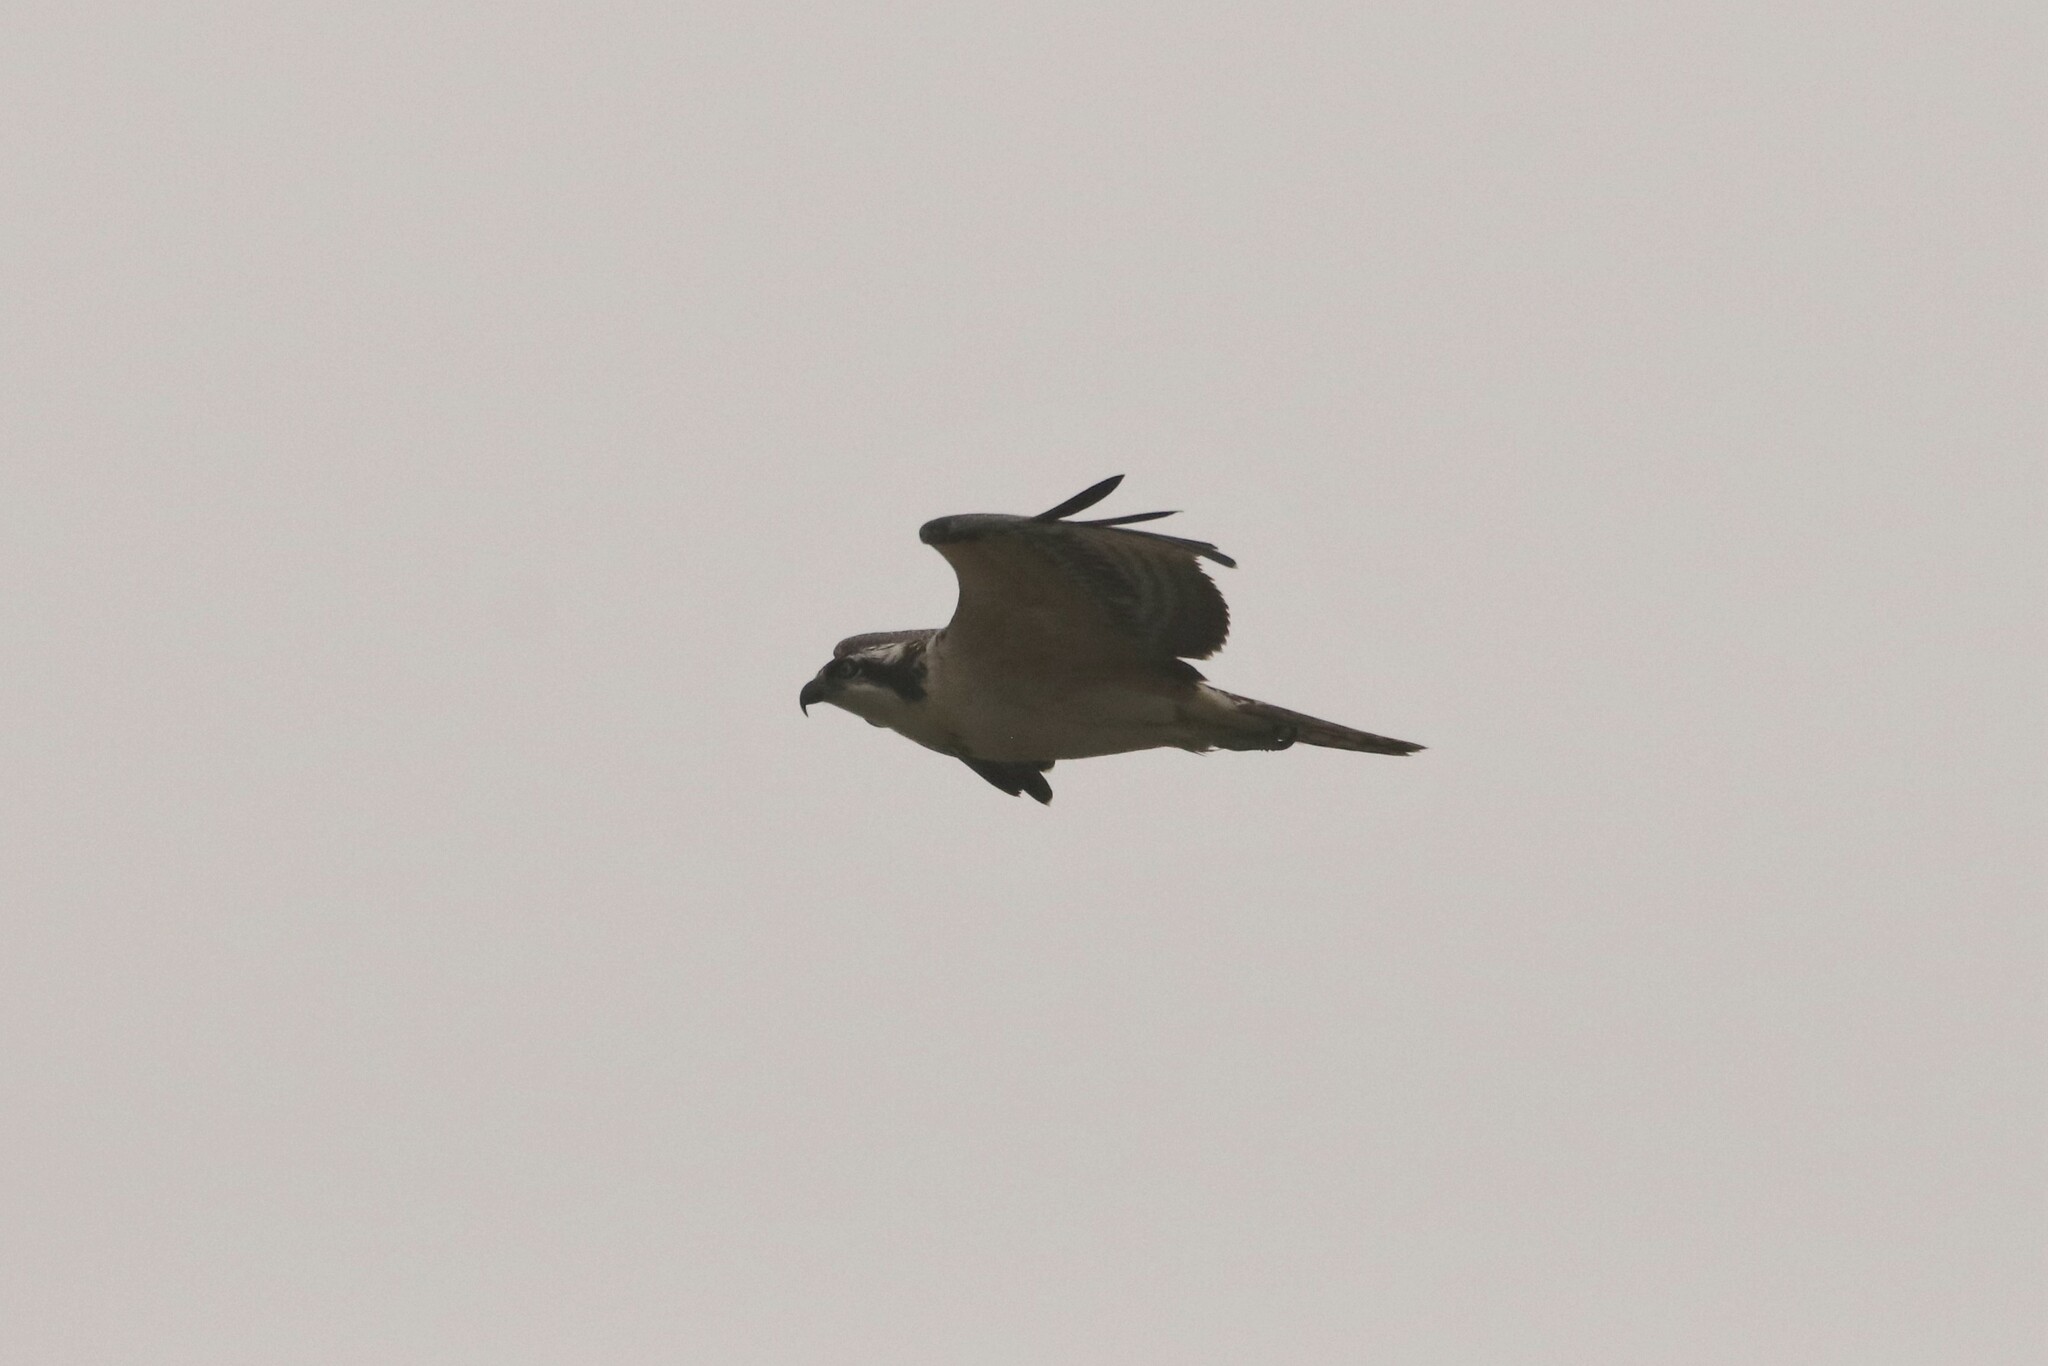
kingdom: Animalia
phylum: Chordata
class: Aves
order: Accipitriformes
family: Pandionidae
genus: Pandion
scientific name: Pandion haliaetus
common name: Osprey
